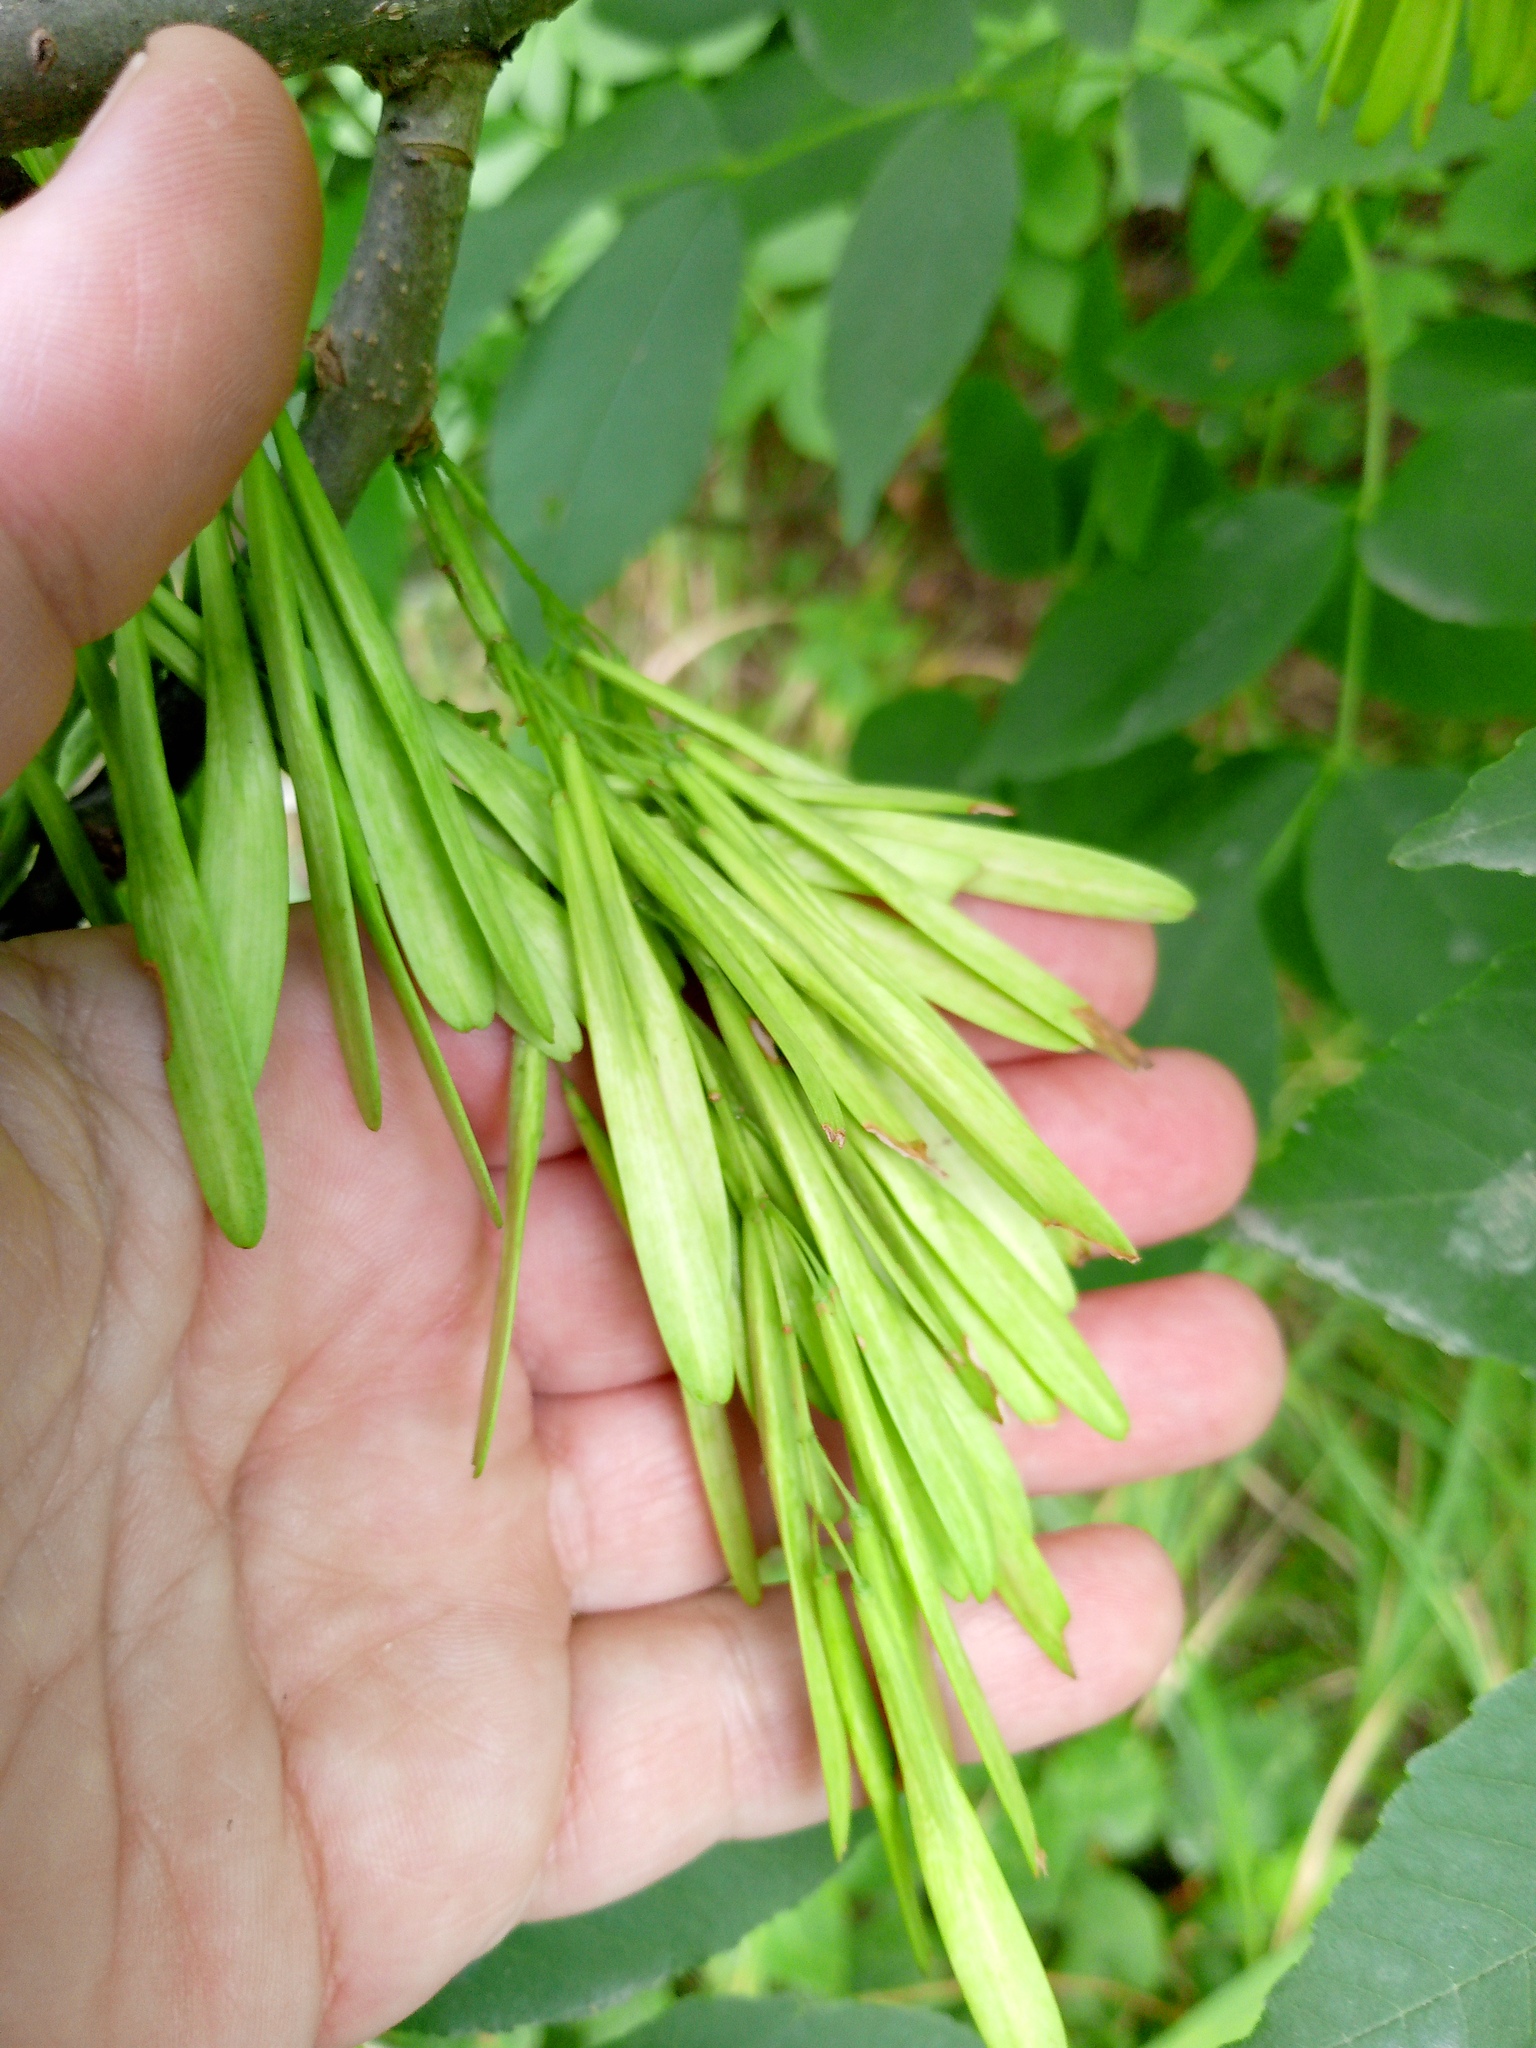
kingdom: Plantae
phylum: Tracheophyta
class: Magnoliopsida
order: Lamiales
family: Oleaceae
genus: Fraxinus
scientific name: Fraxinus pennsylvanica
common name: Green ash
